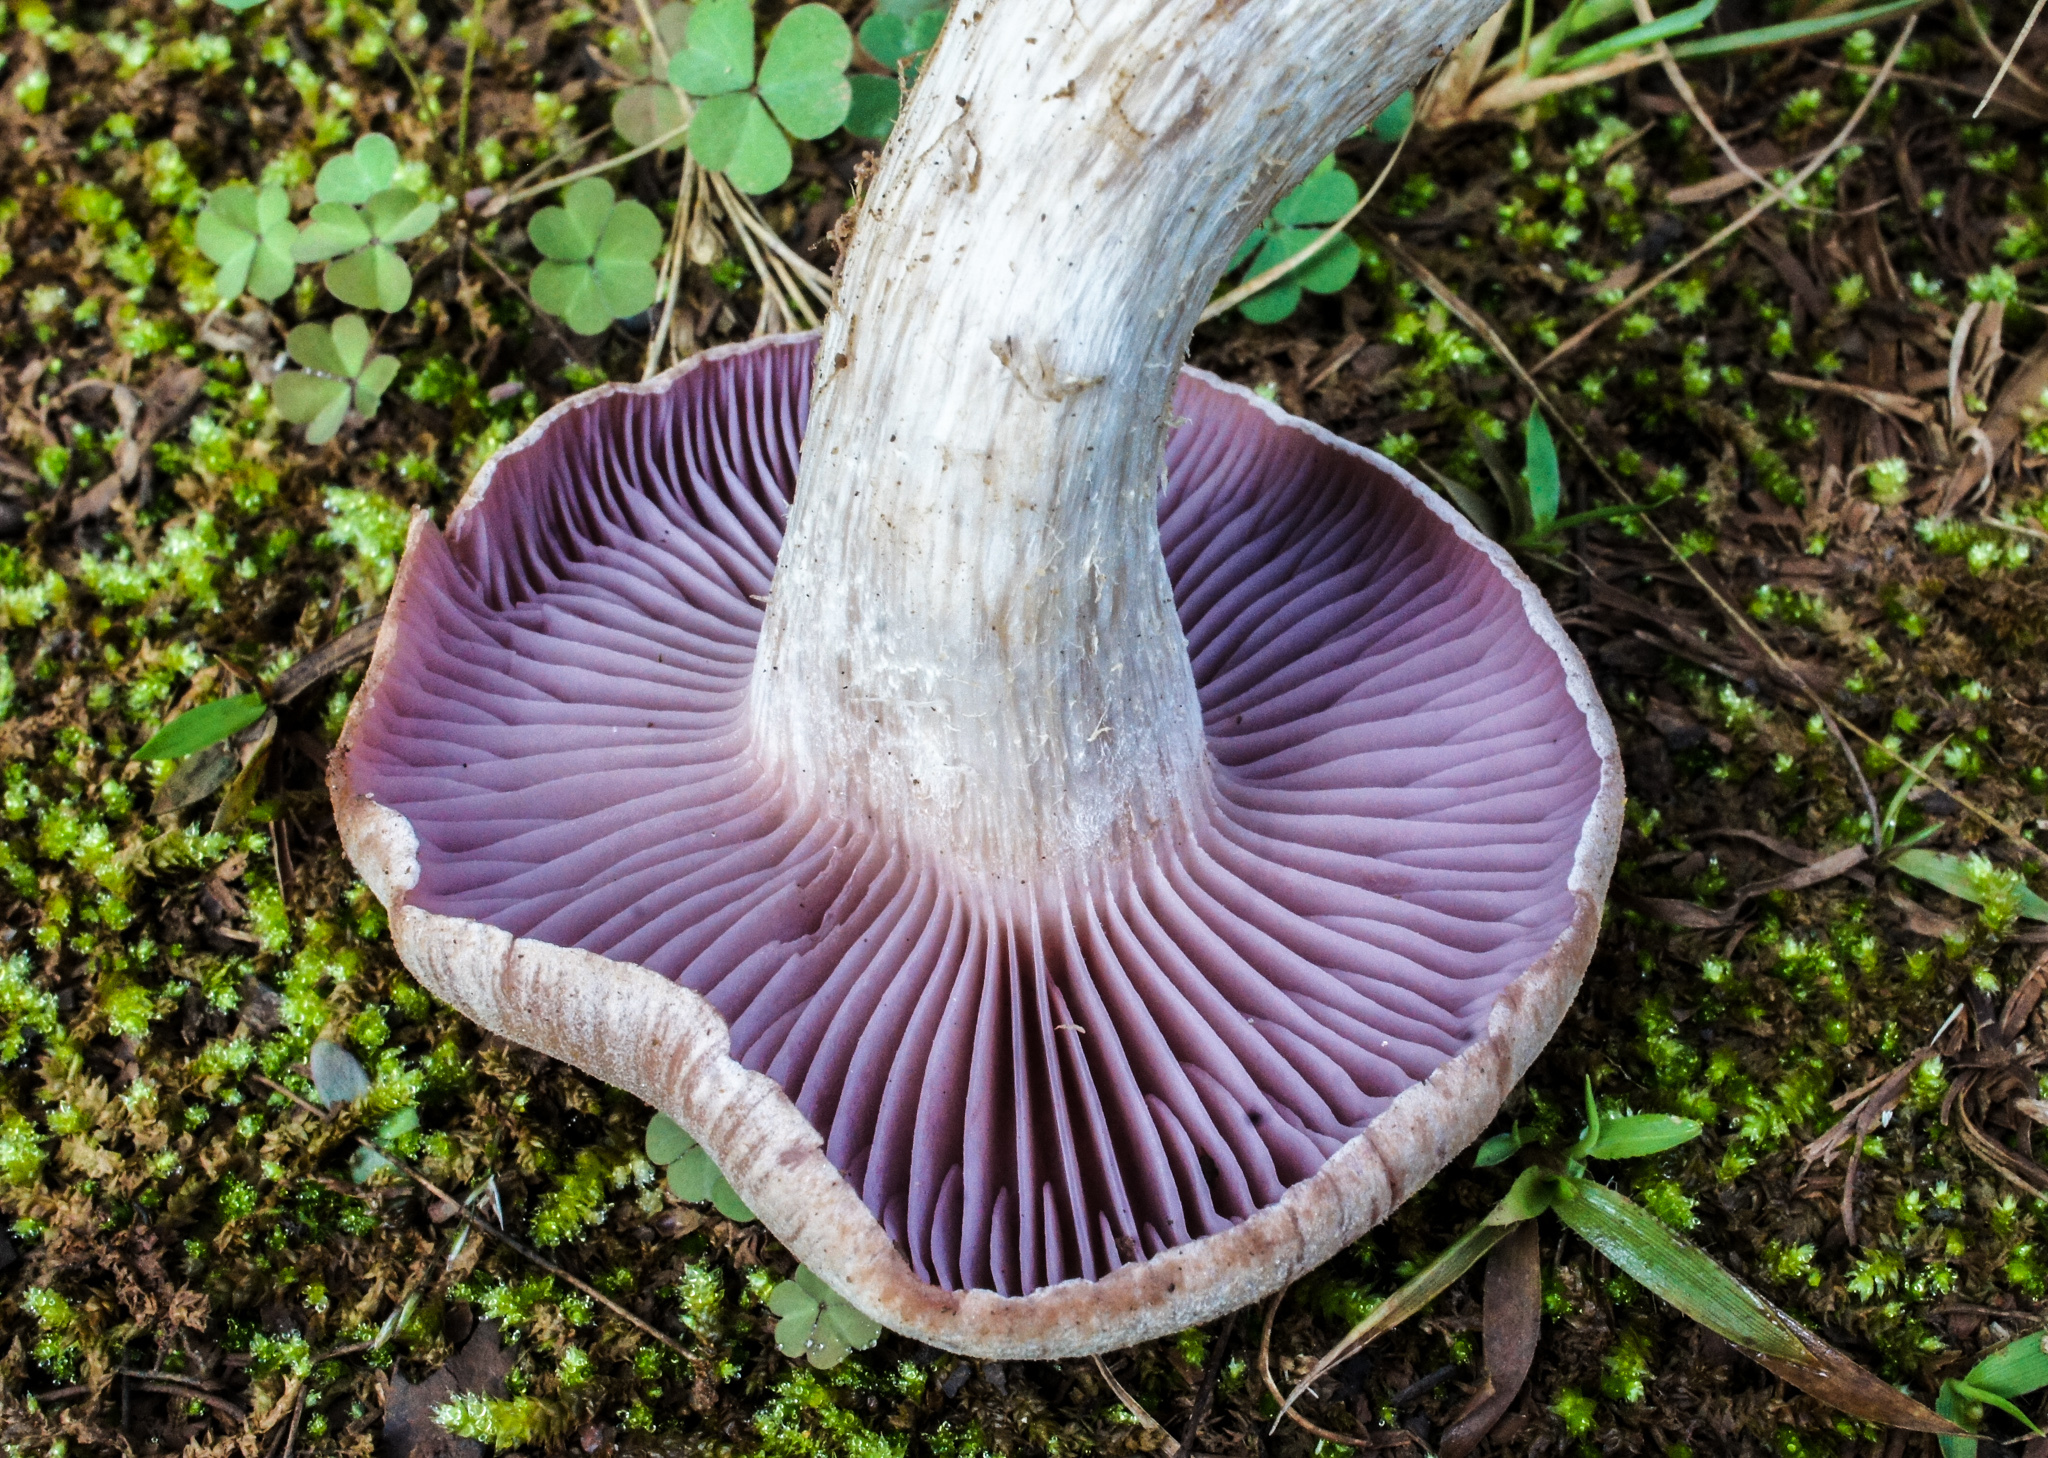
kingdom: Fungi
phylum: Basidiomycota
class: Agaricomycetes
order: Agaricales
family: Hydnangiaceae
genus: Laccaria
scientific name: Laccaria ochropurpurea
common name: Purple laccaria
